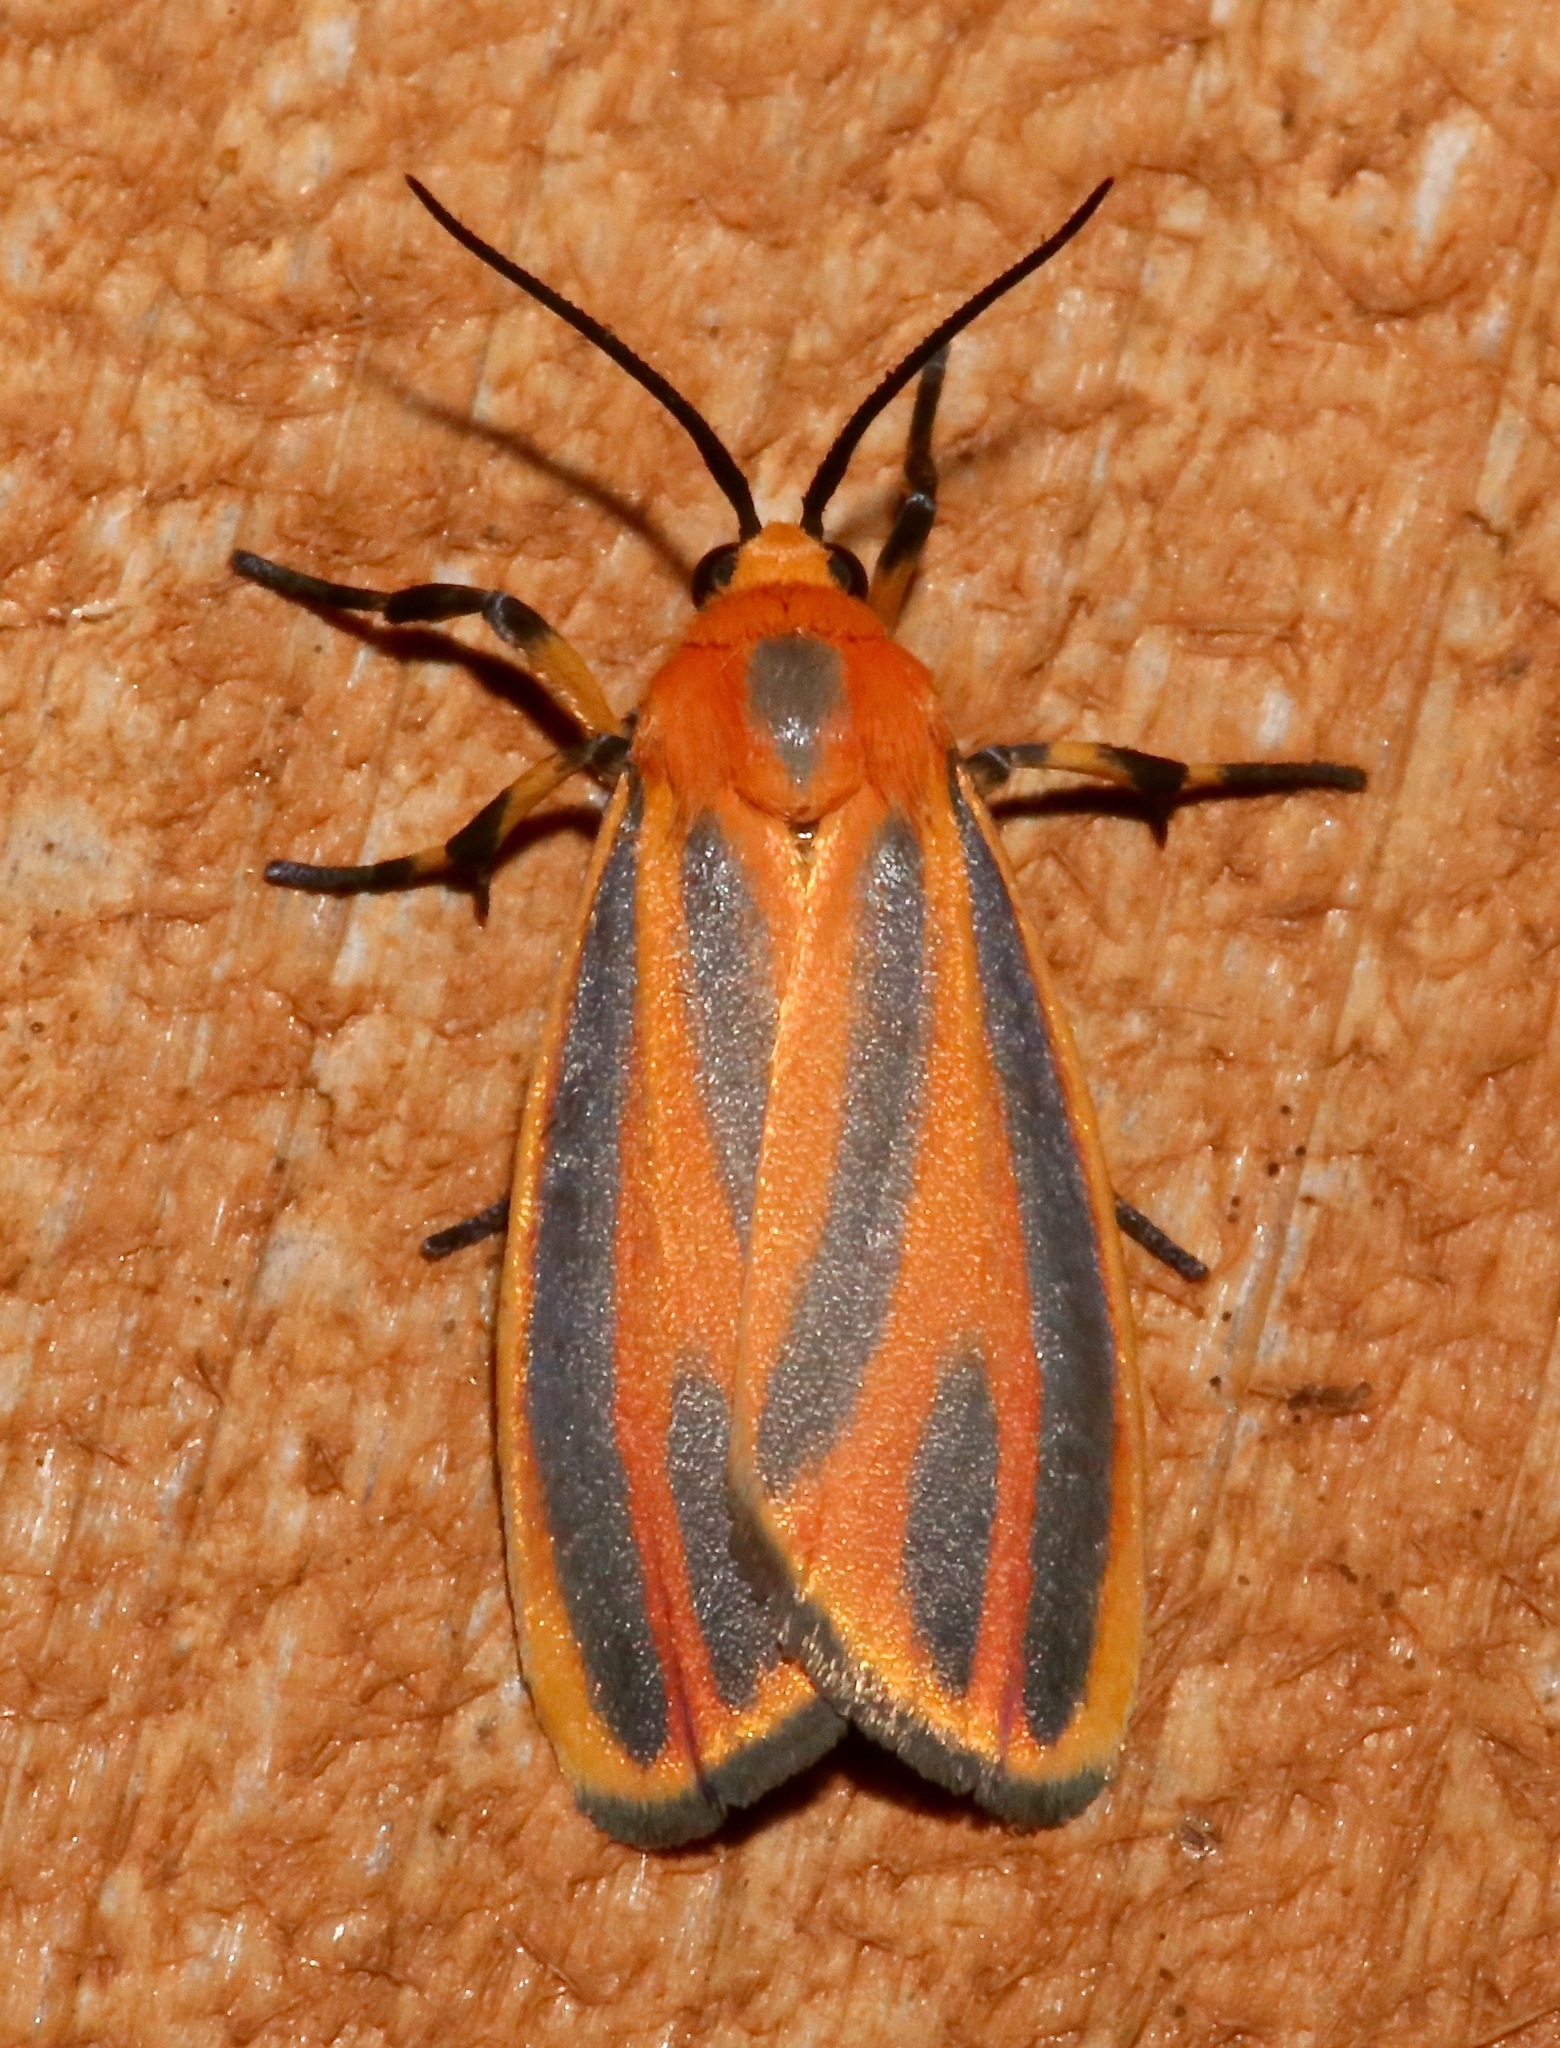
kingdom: Animalia
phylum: Arthropoda
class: Insecta
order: Lepidoptera
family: Erebidae
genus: Hypoprepia
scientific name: Hypoprepia fucosa
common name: Painted lichen moth
